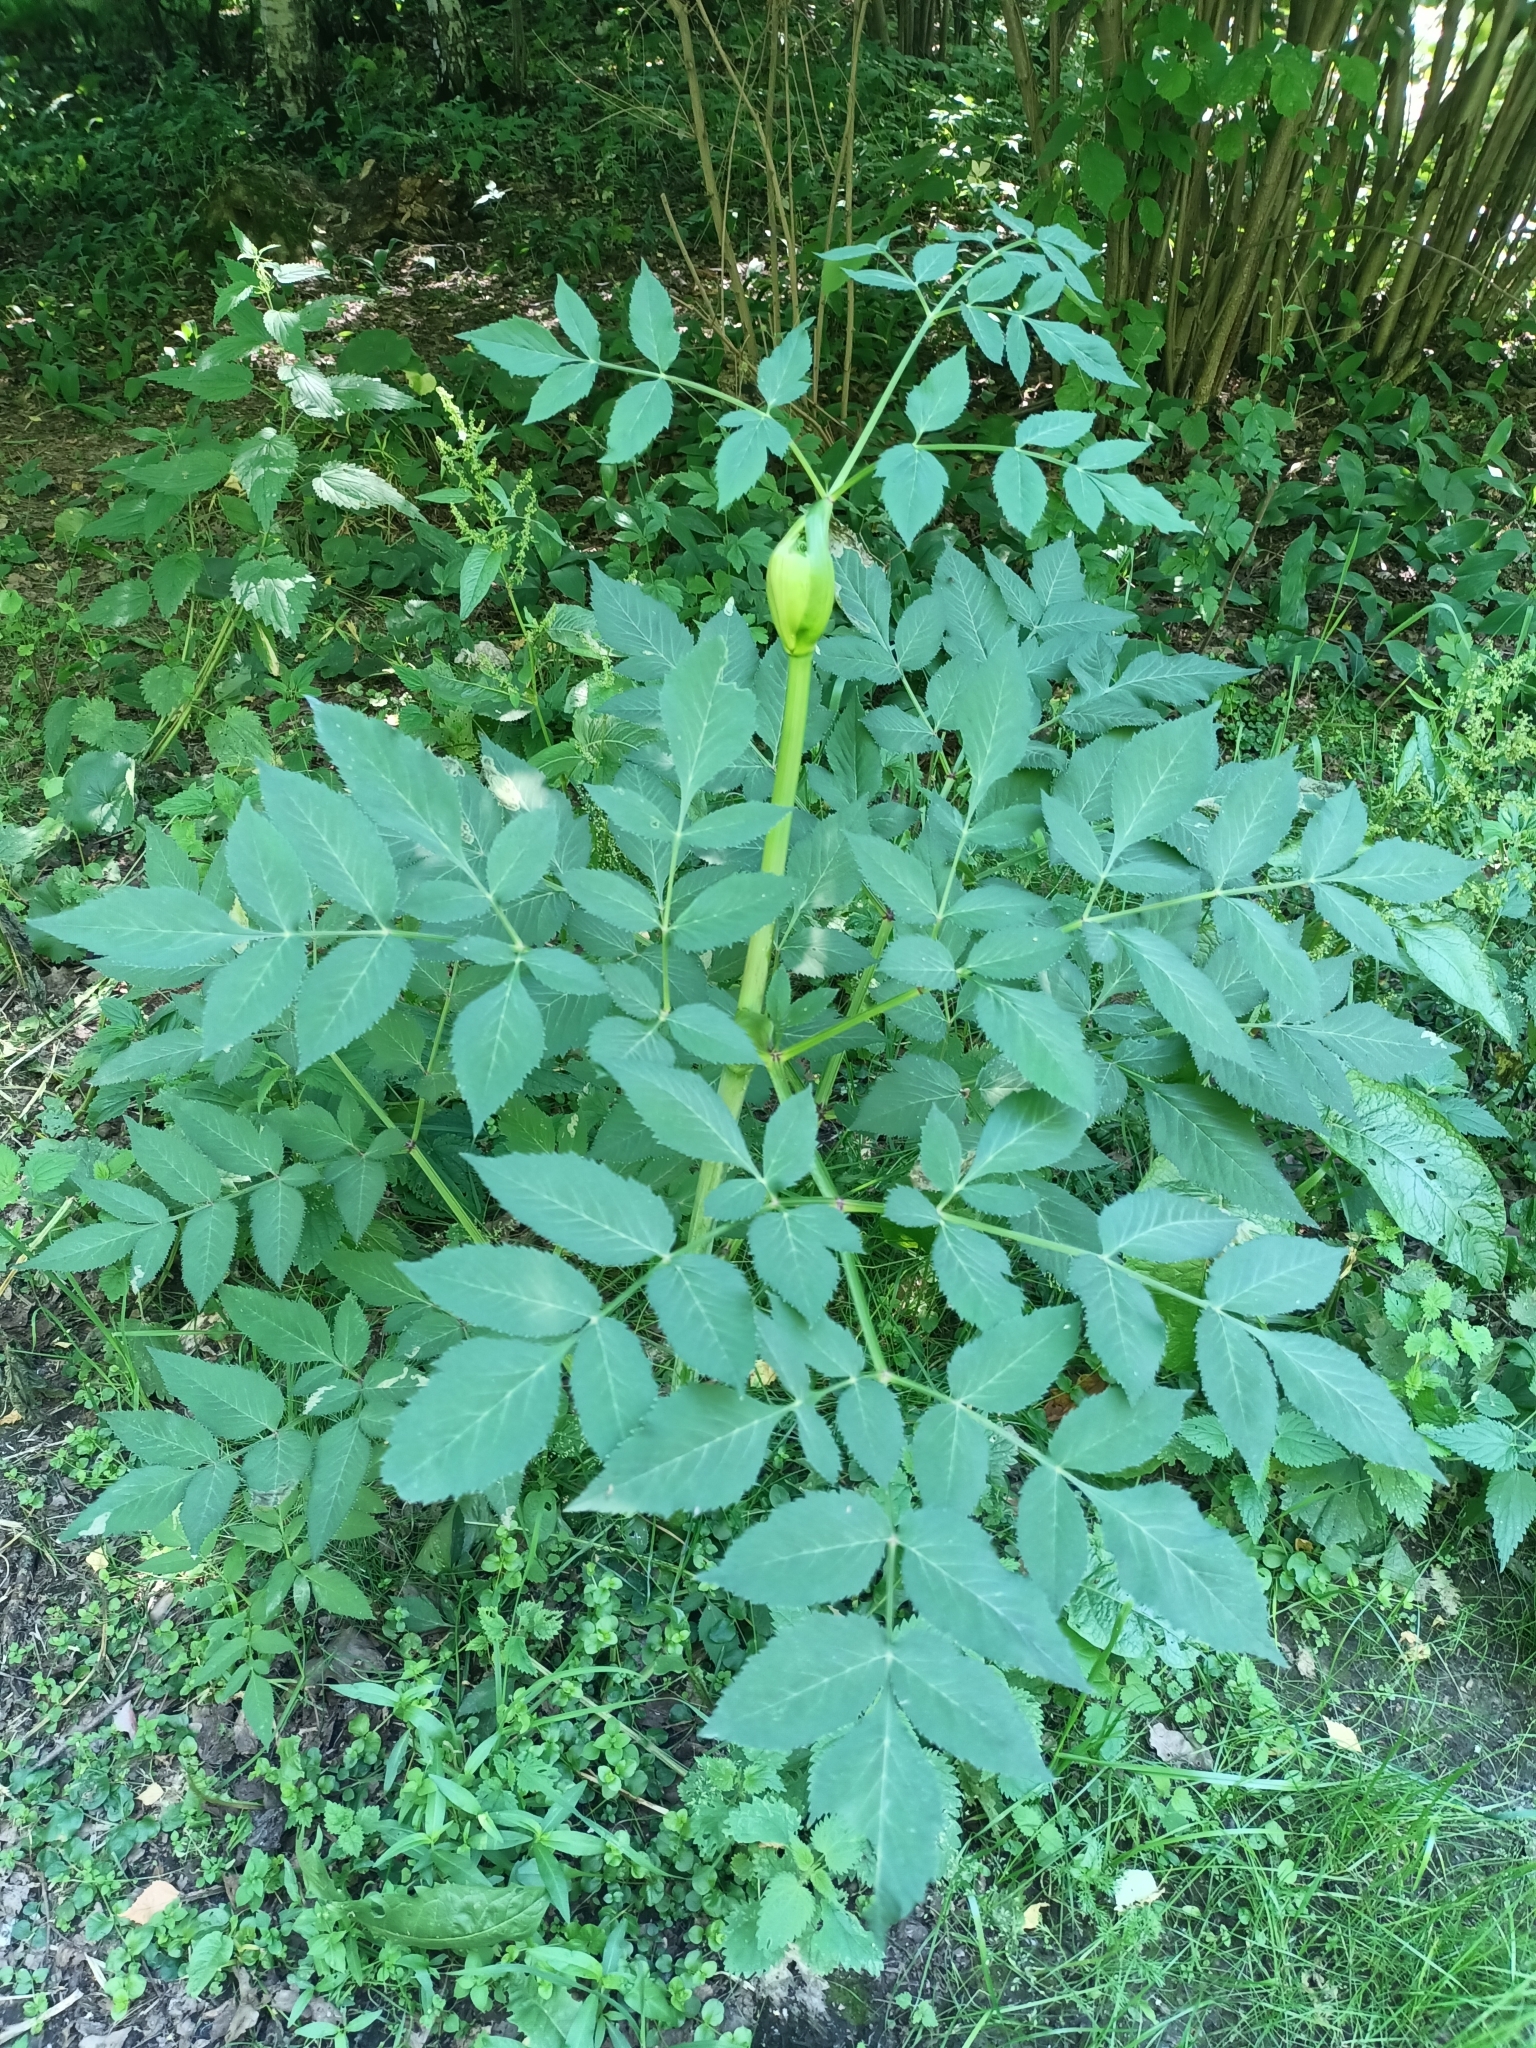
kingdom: Plantae
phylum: Tracheophyta
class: Magnoliopsida
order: Apiales
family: Apiaceae
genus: Angelica
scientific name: Angelica sylvestris
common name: Wild angelica
